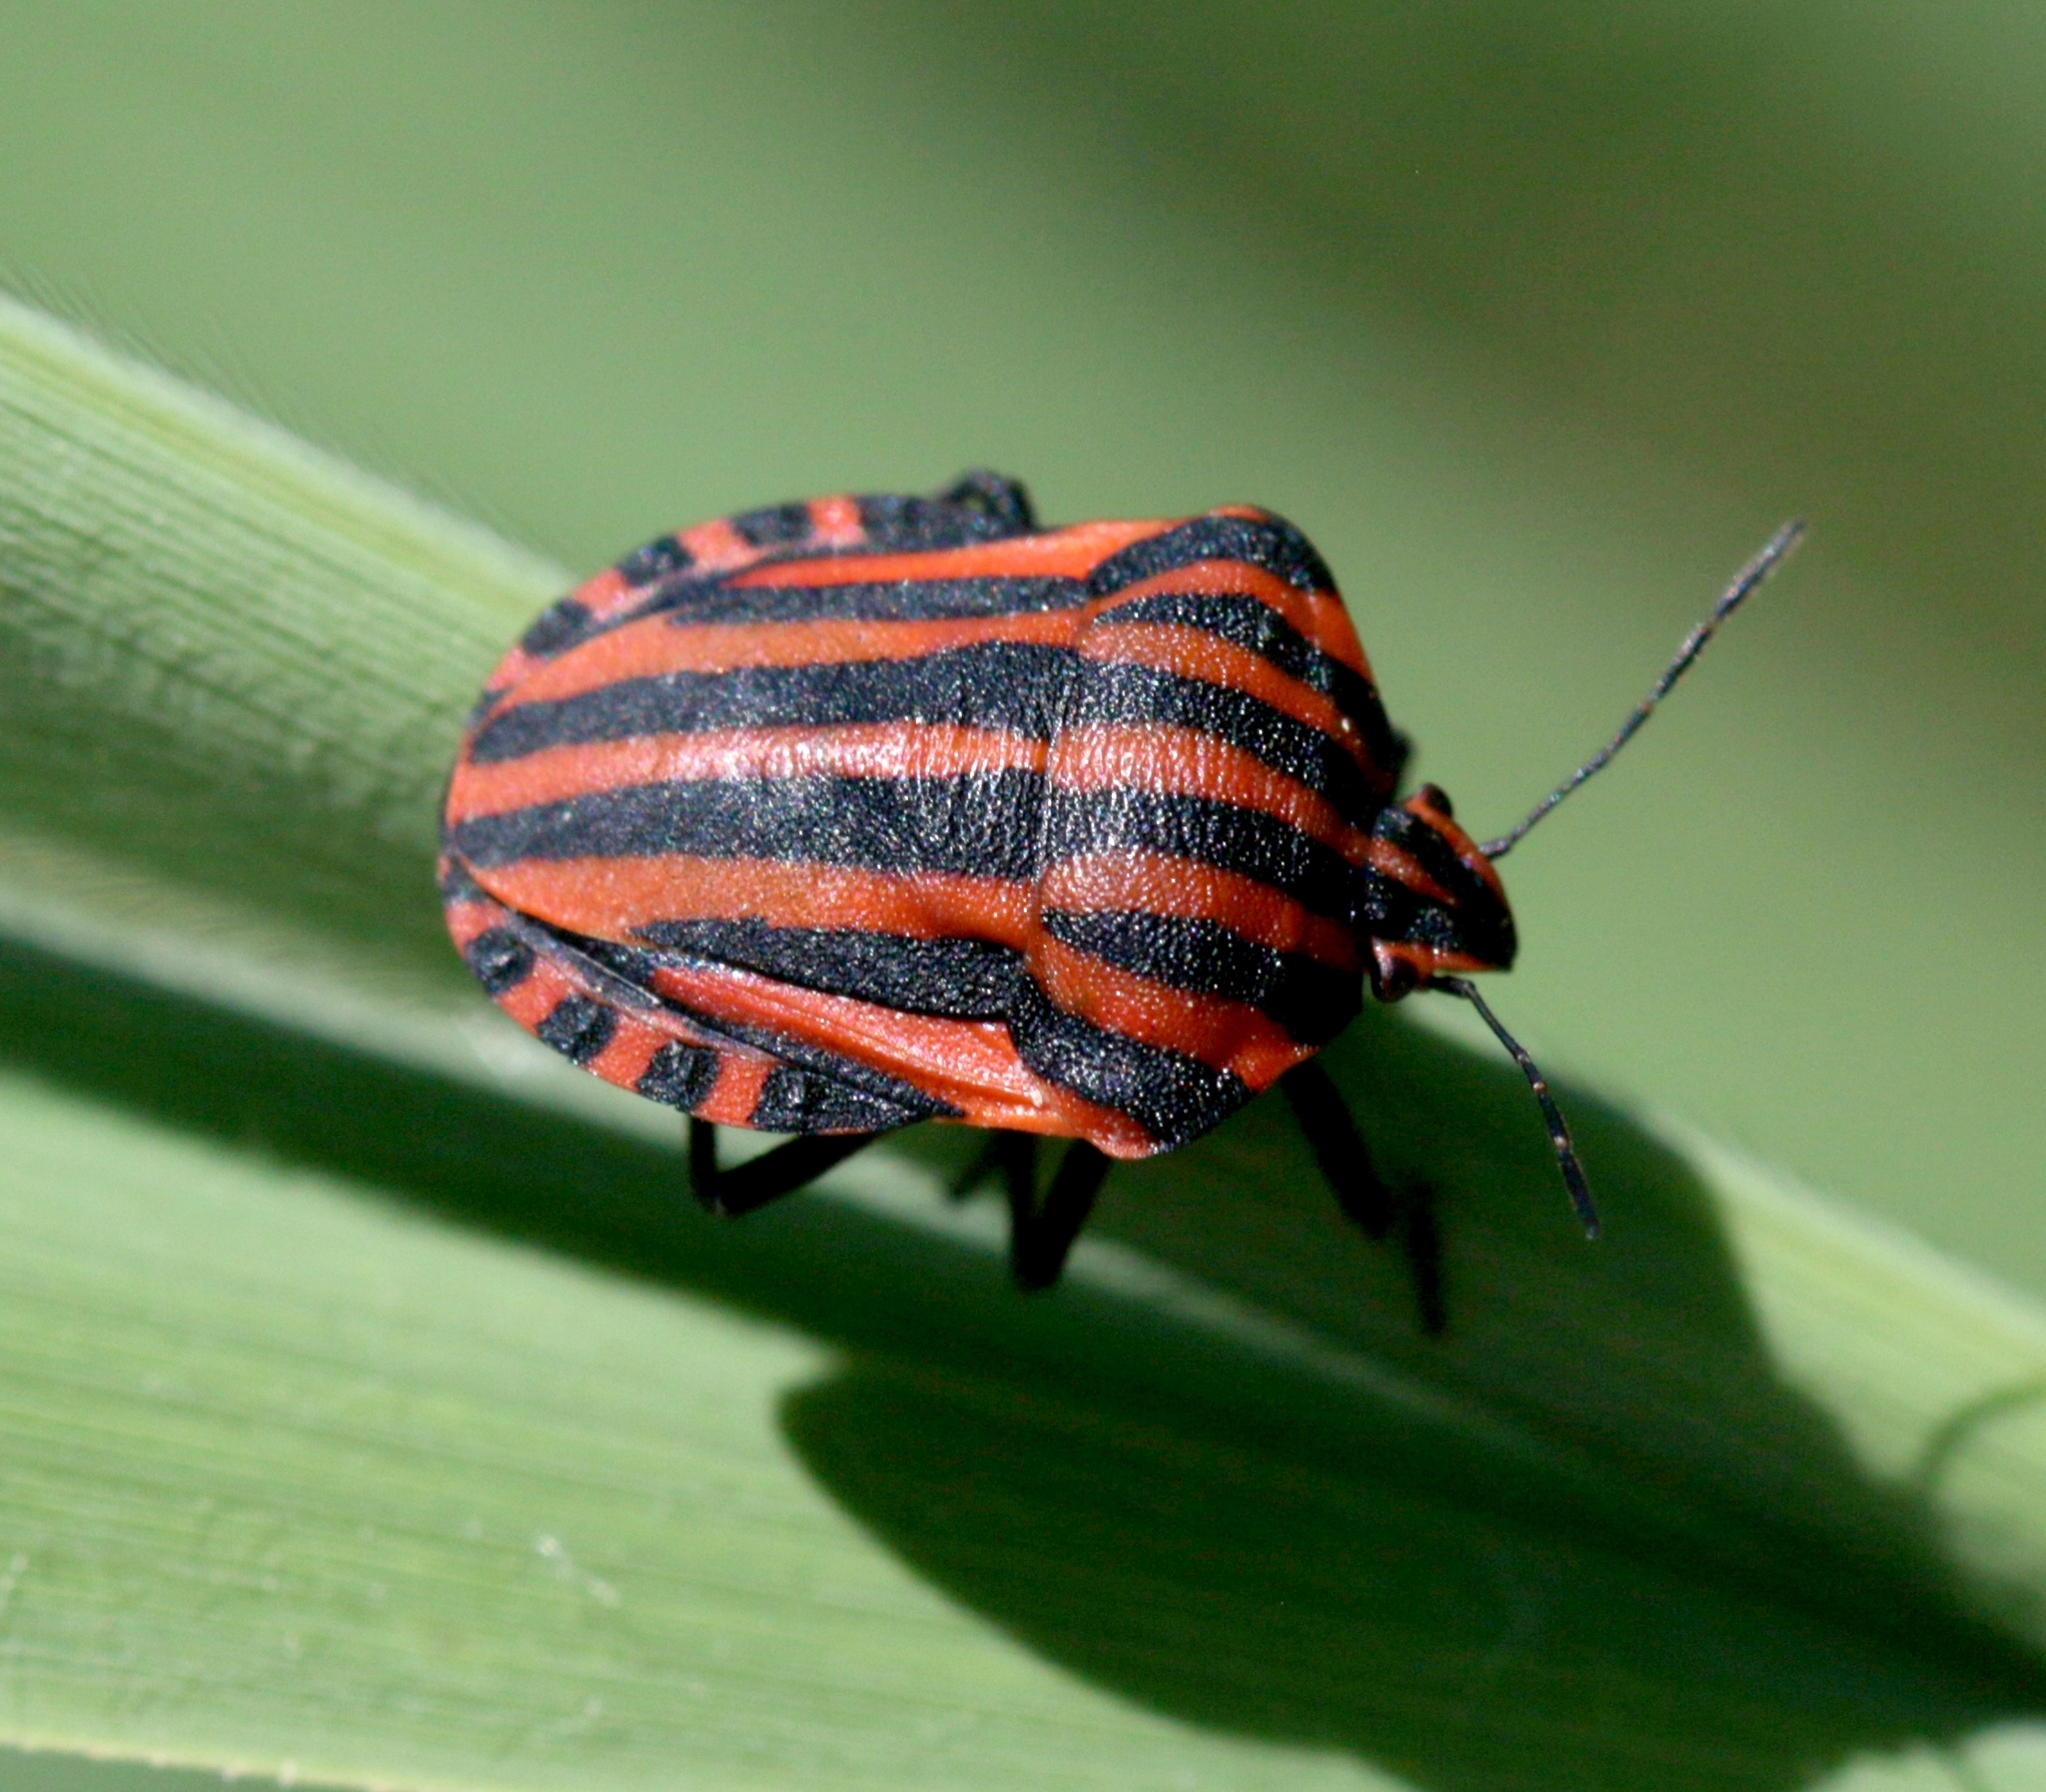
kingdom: Animalia
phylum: Arthropoda
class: Insecta
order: Hemiptera
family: Pentatomidae
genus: Graphosoma
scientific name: Graphosoma italicum
